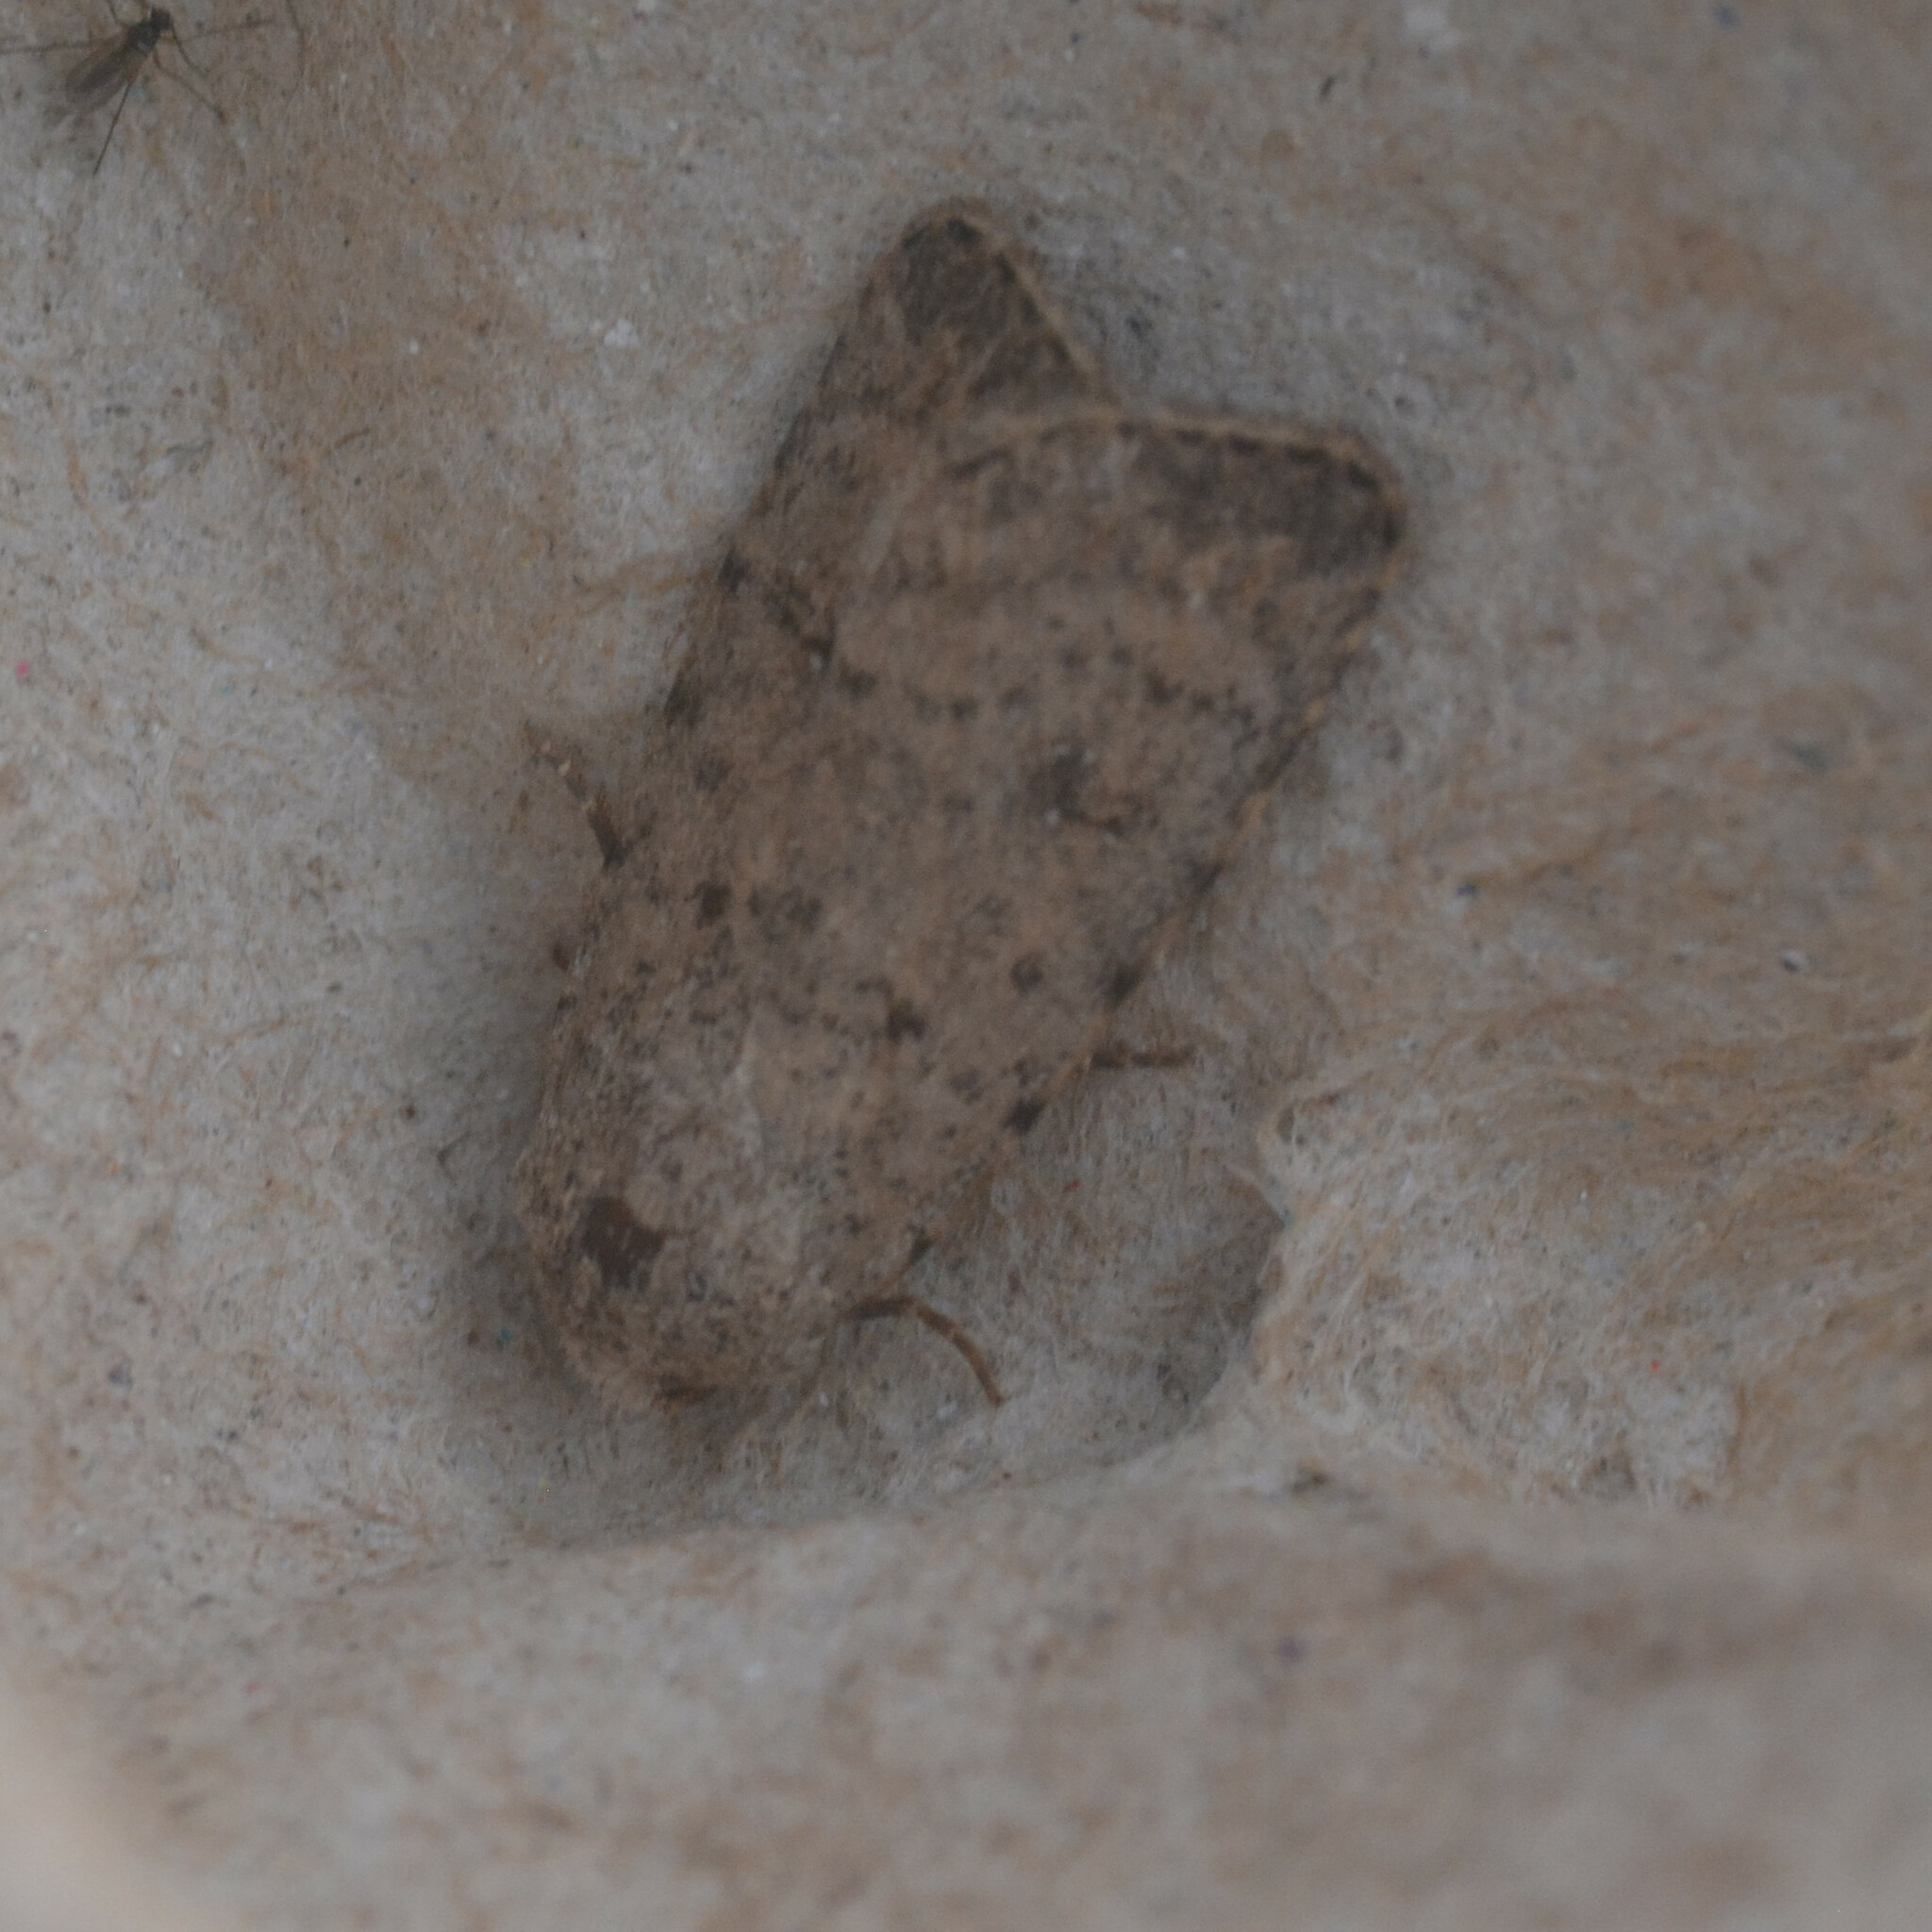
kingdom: Animalia
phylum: Arthropoda
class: Insecta
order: Lepidoptera
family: Noctuidae
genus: Caradrina
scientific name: Caradrina clavipalpis
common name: Pale mottled willow
